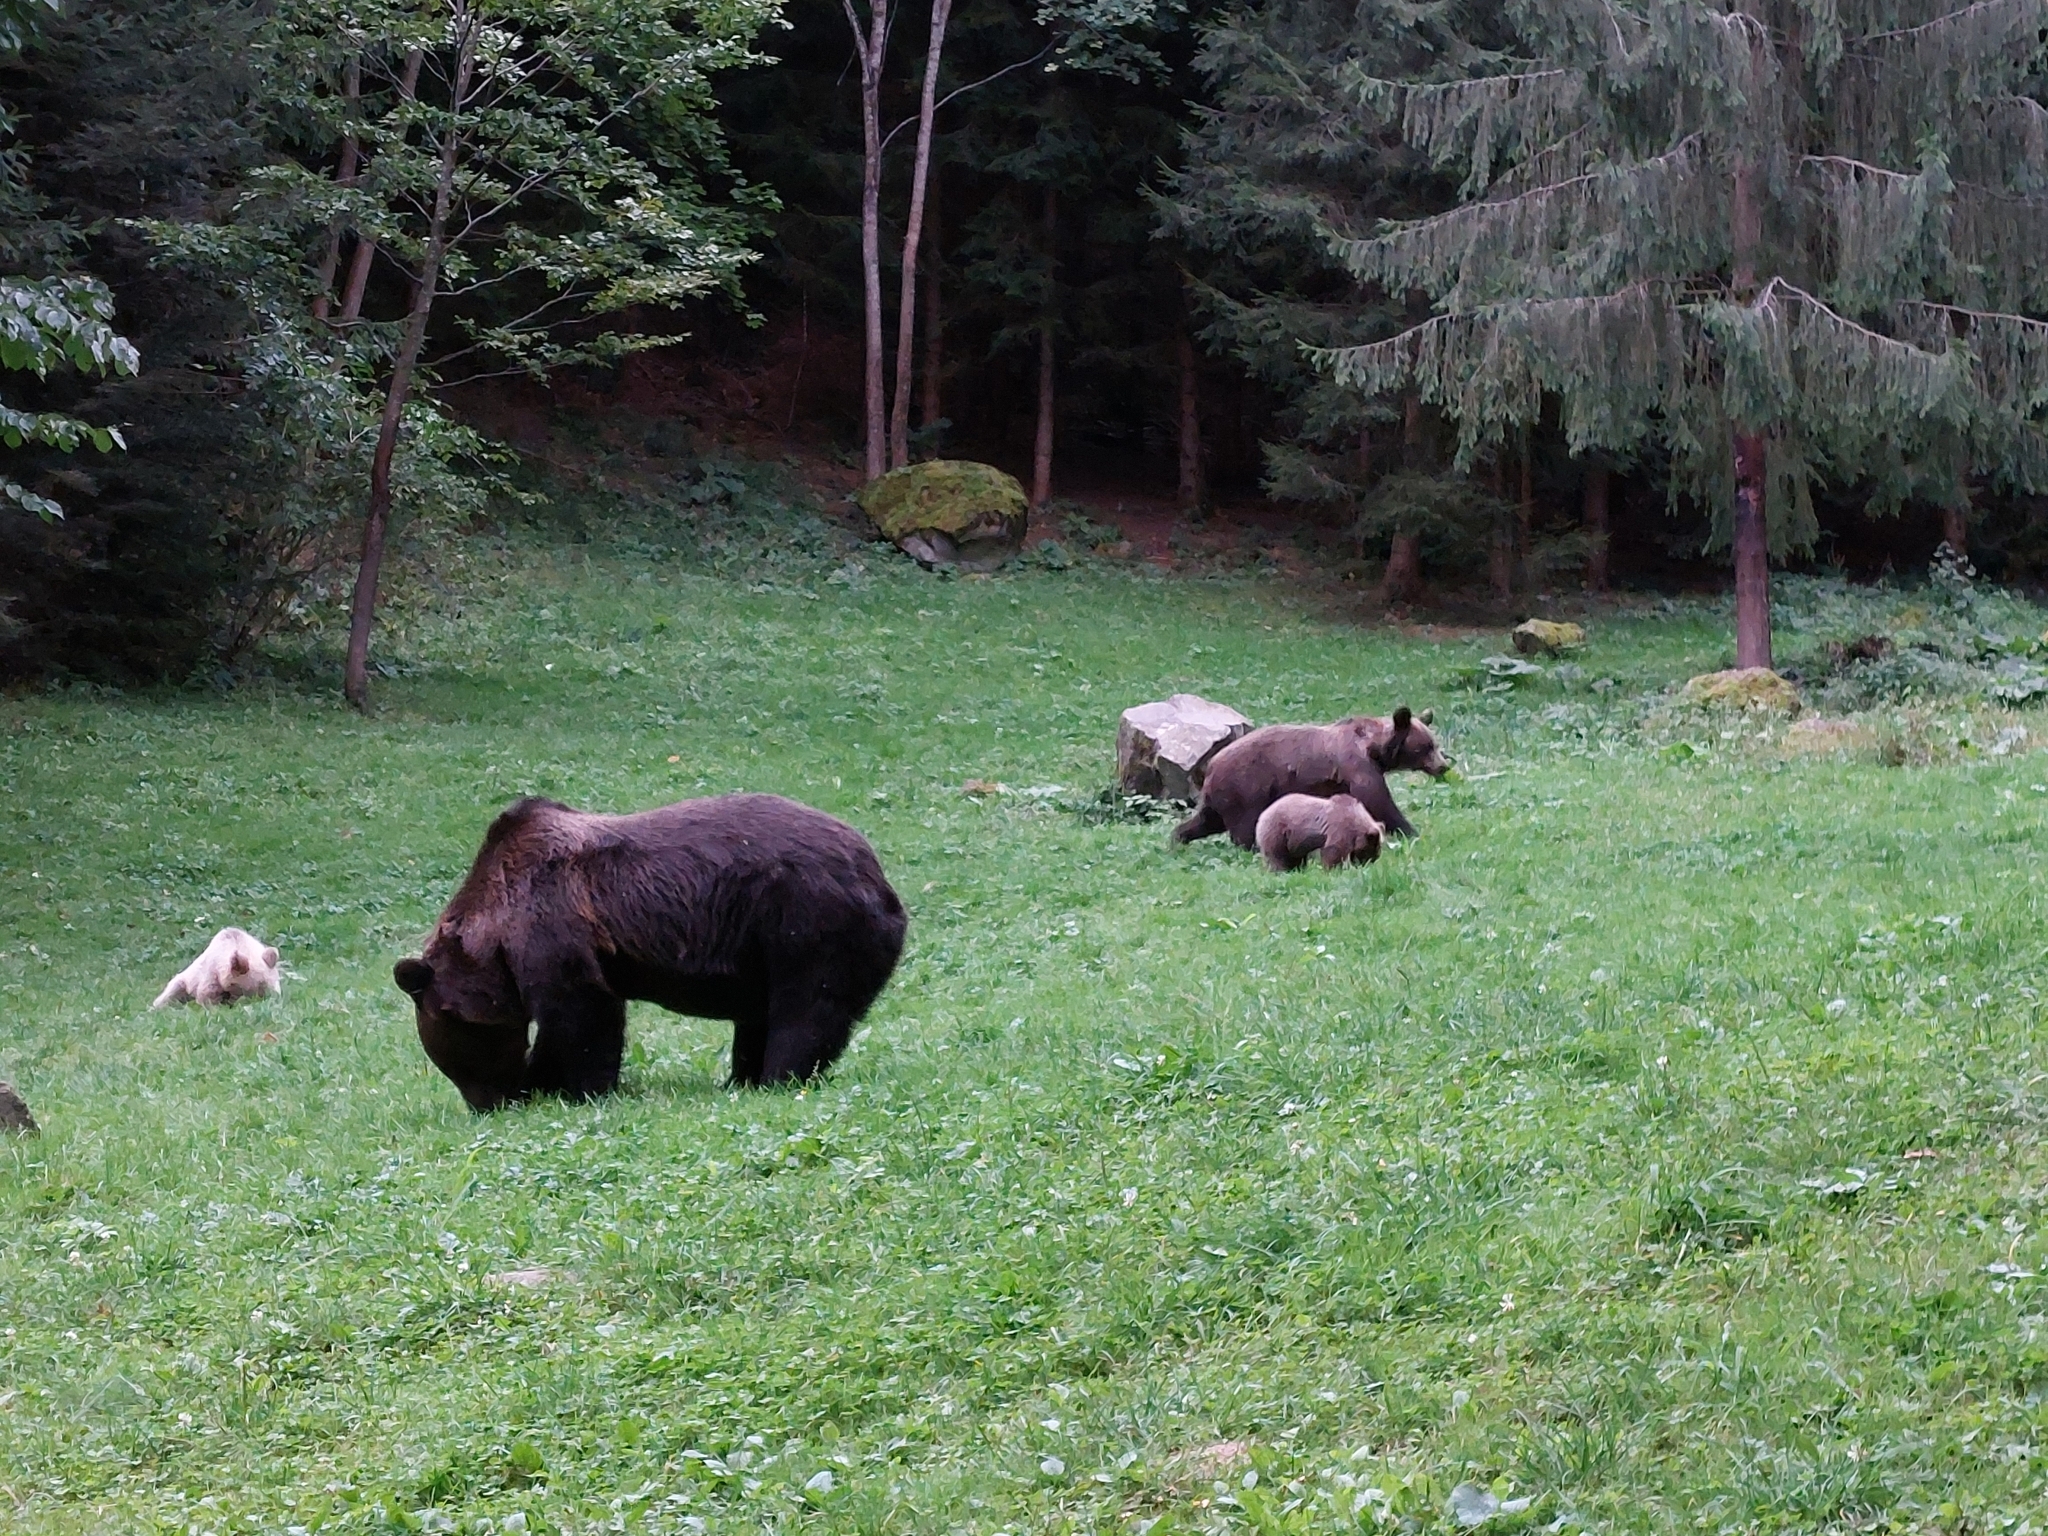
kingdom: Animalia
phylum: Chordata
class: Mammalia
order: Carnivora
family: Ursidae
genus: Ursus
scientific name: Ursus arctos
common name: Brown bear
